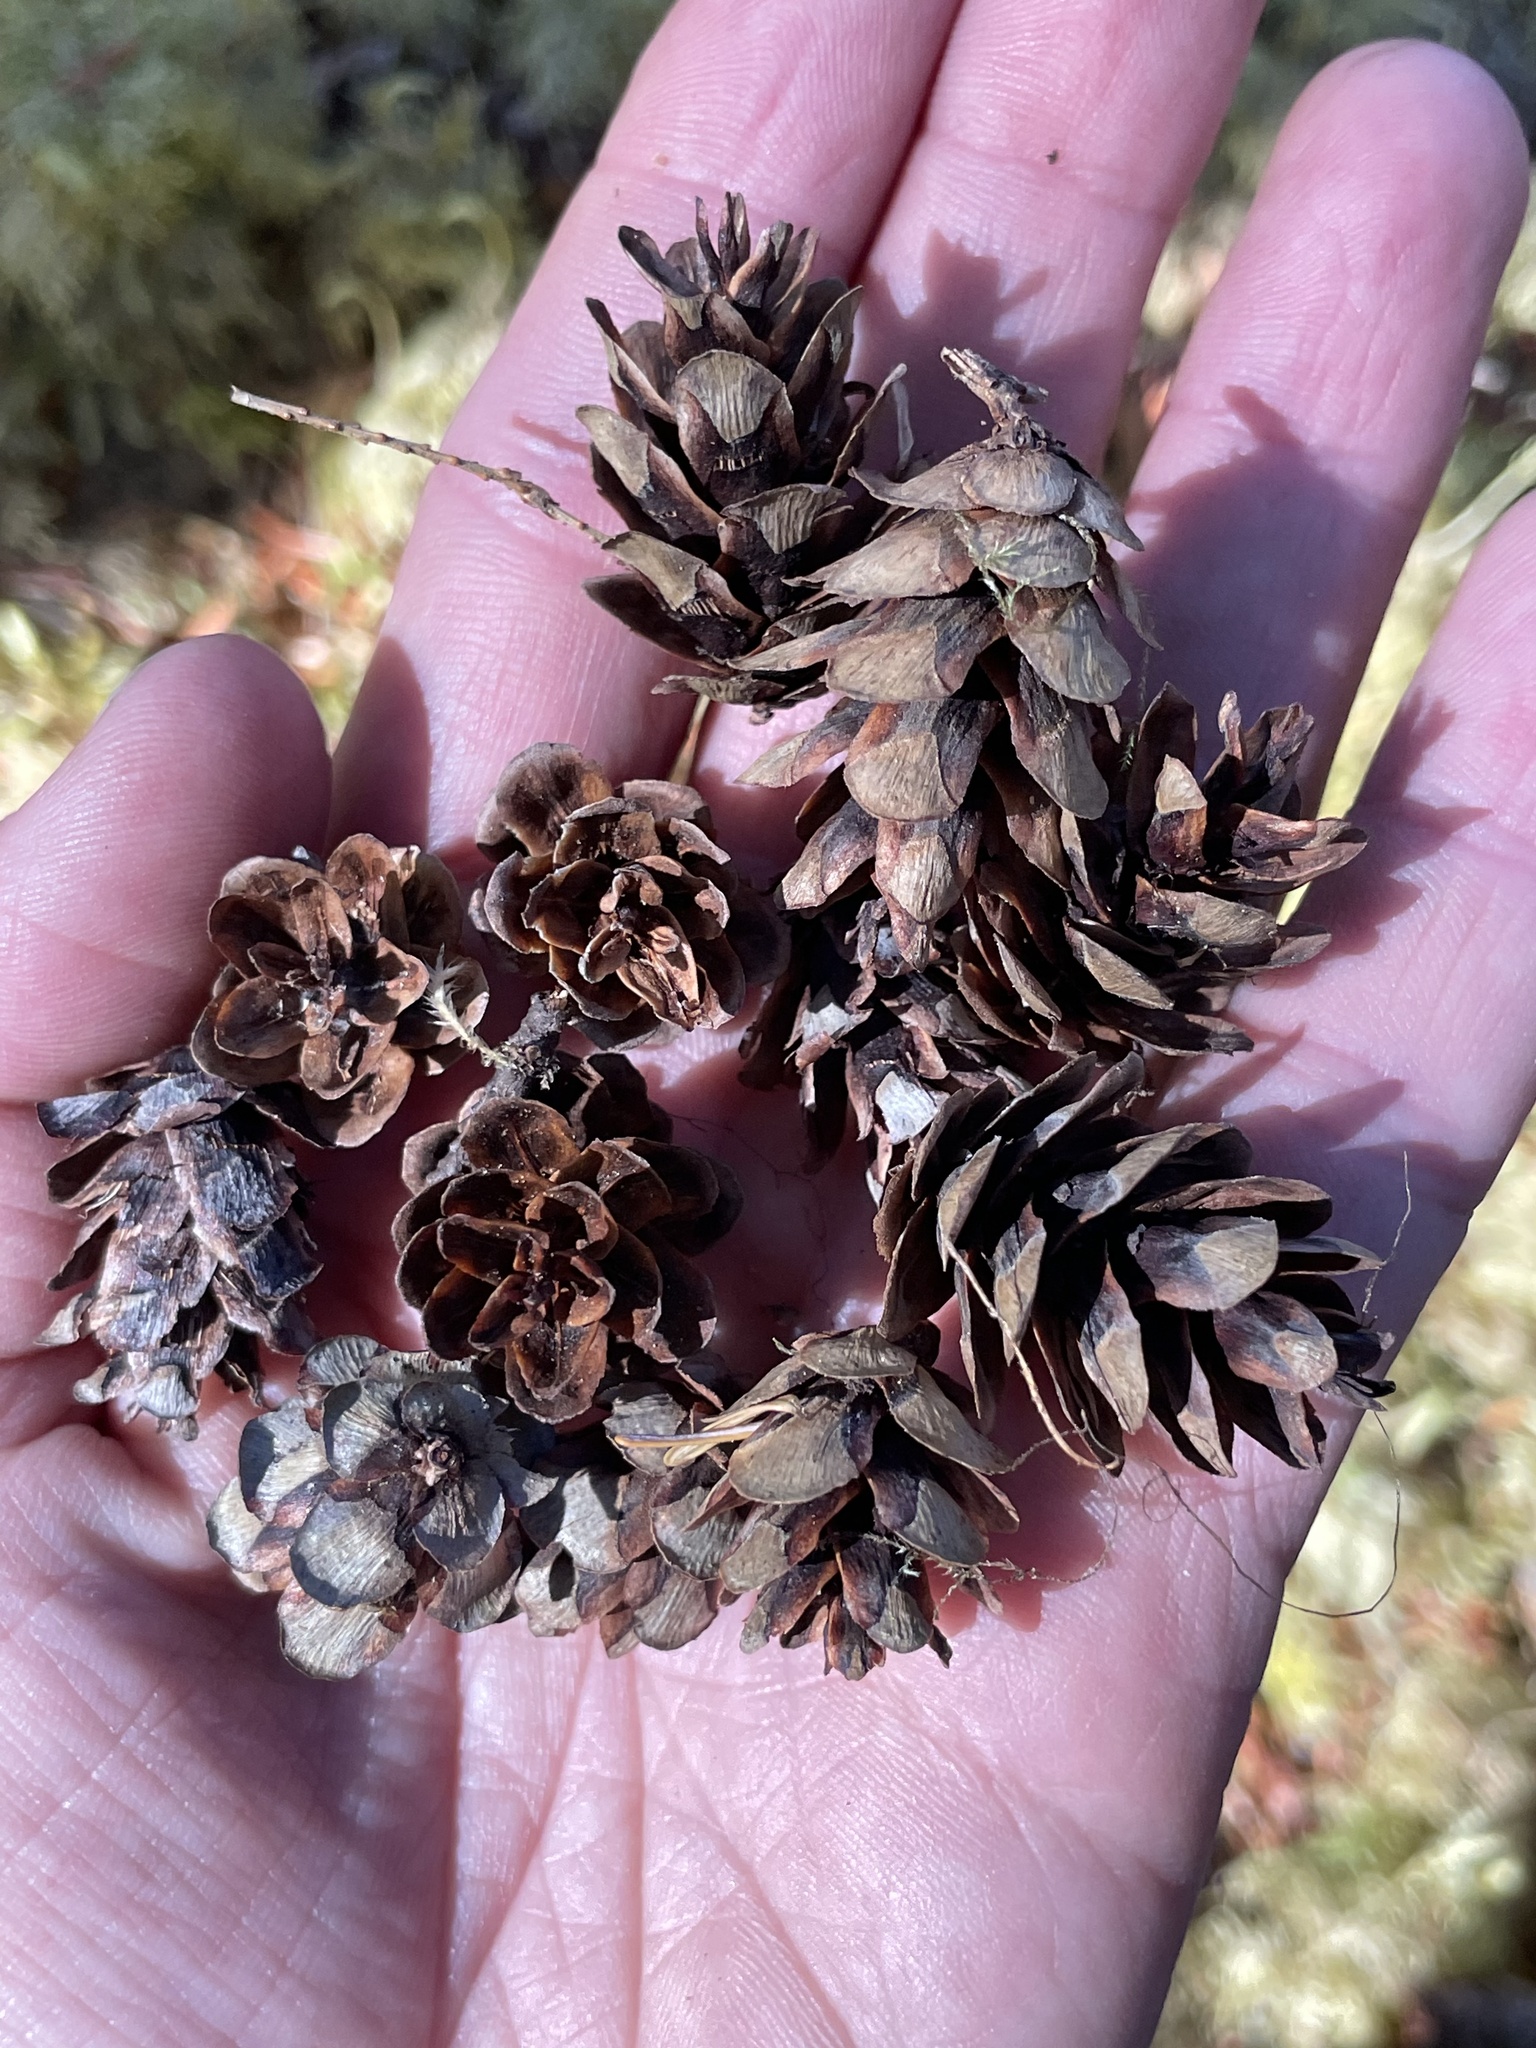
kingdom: Plantae
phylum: Tracheophyta
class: Pinopsida
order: Pinales
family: Pinaceae
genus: Tsuga
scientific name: Tsuga heterophylla
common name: Western hemlock
